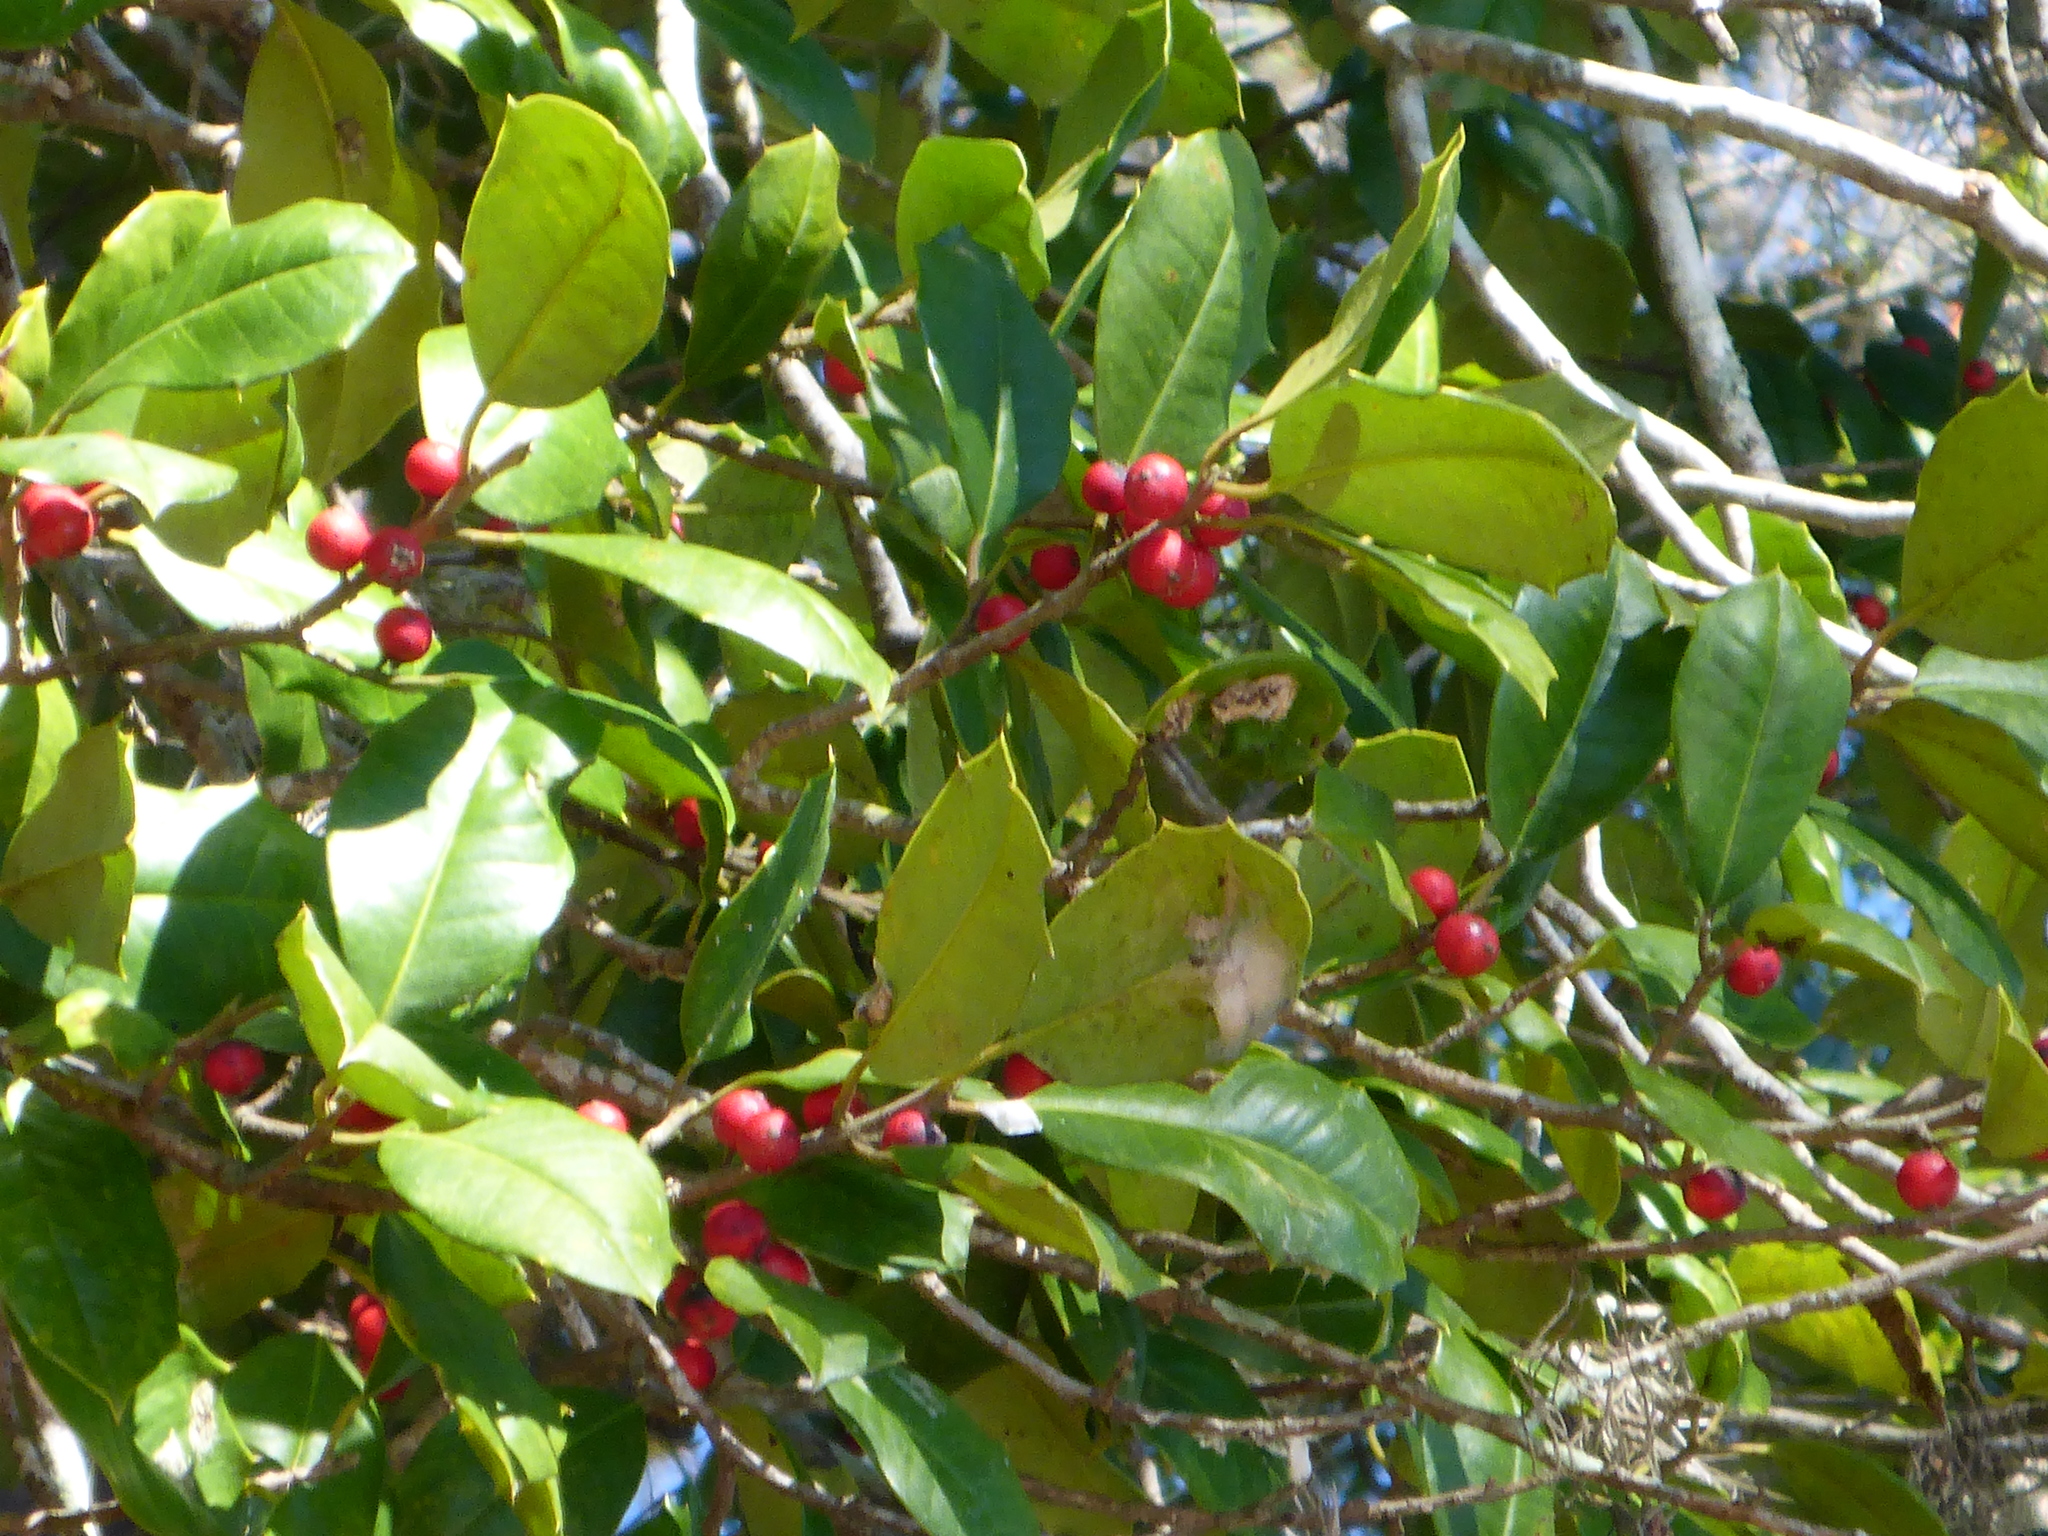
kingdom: Plantae
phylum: Tracheophyta
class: Magnoliopsida
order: Aquifoliales
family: Aquifoliaceae
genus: Ilex
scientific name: Ilex opaca
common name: American holly
